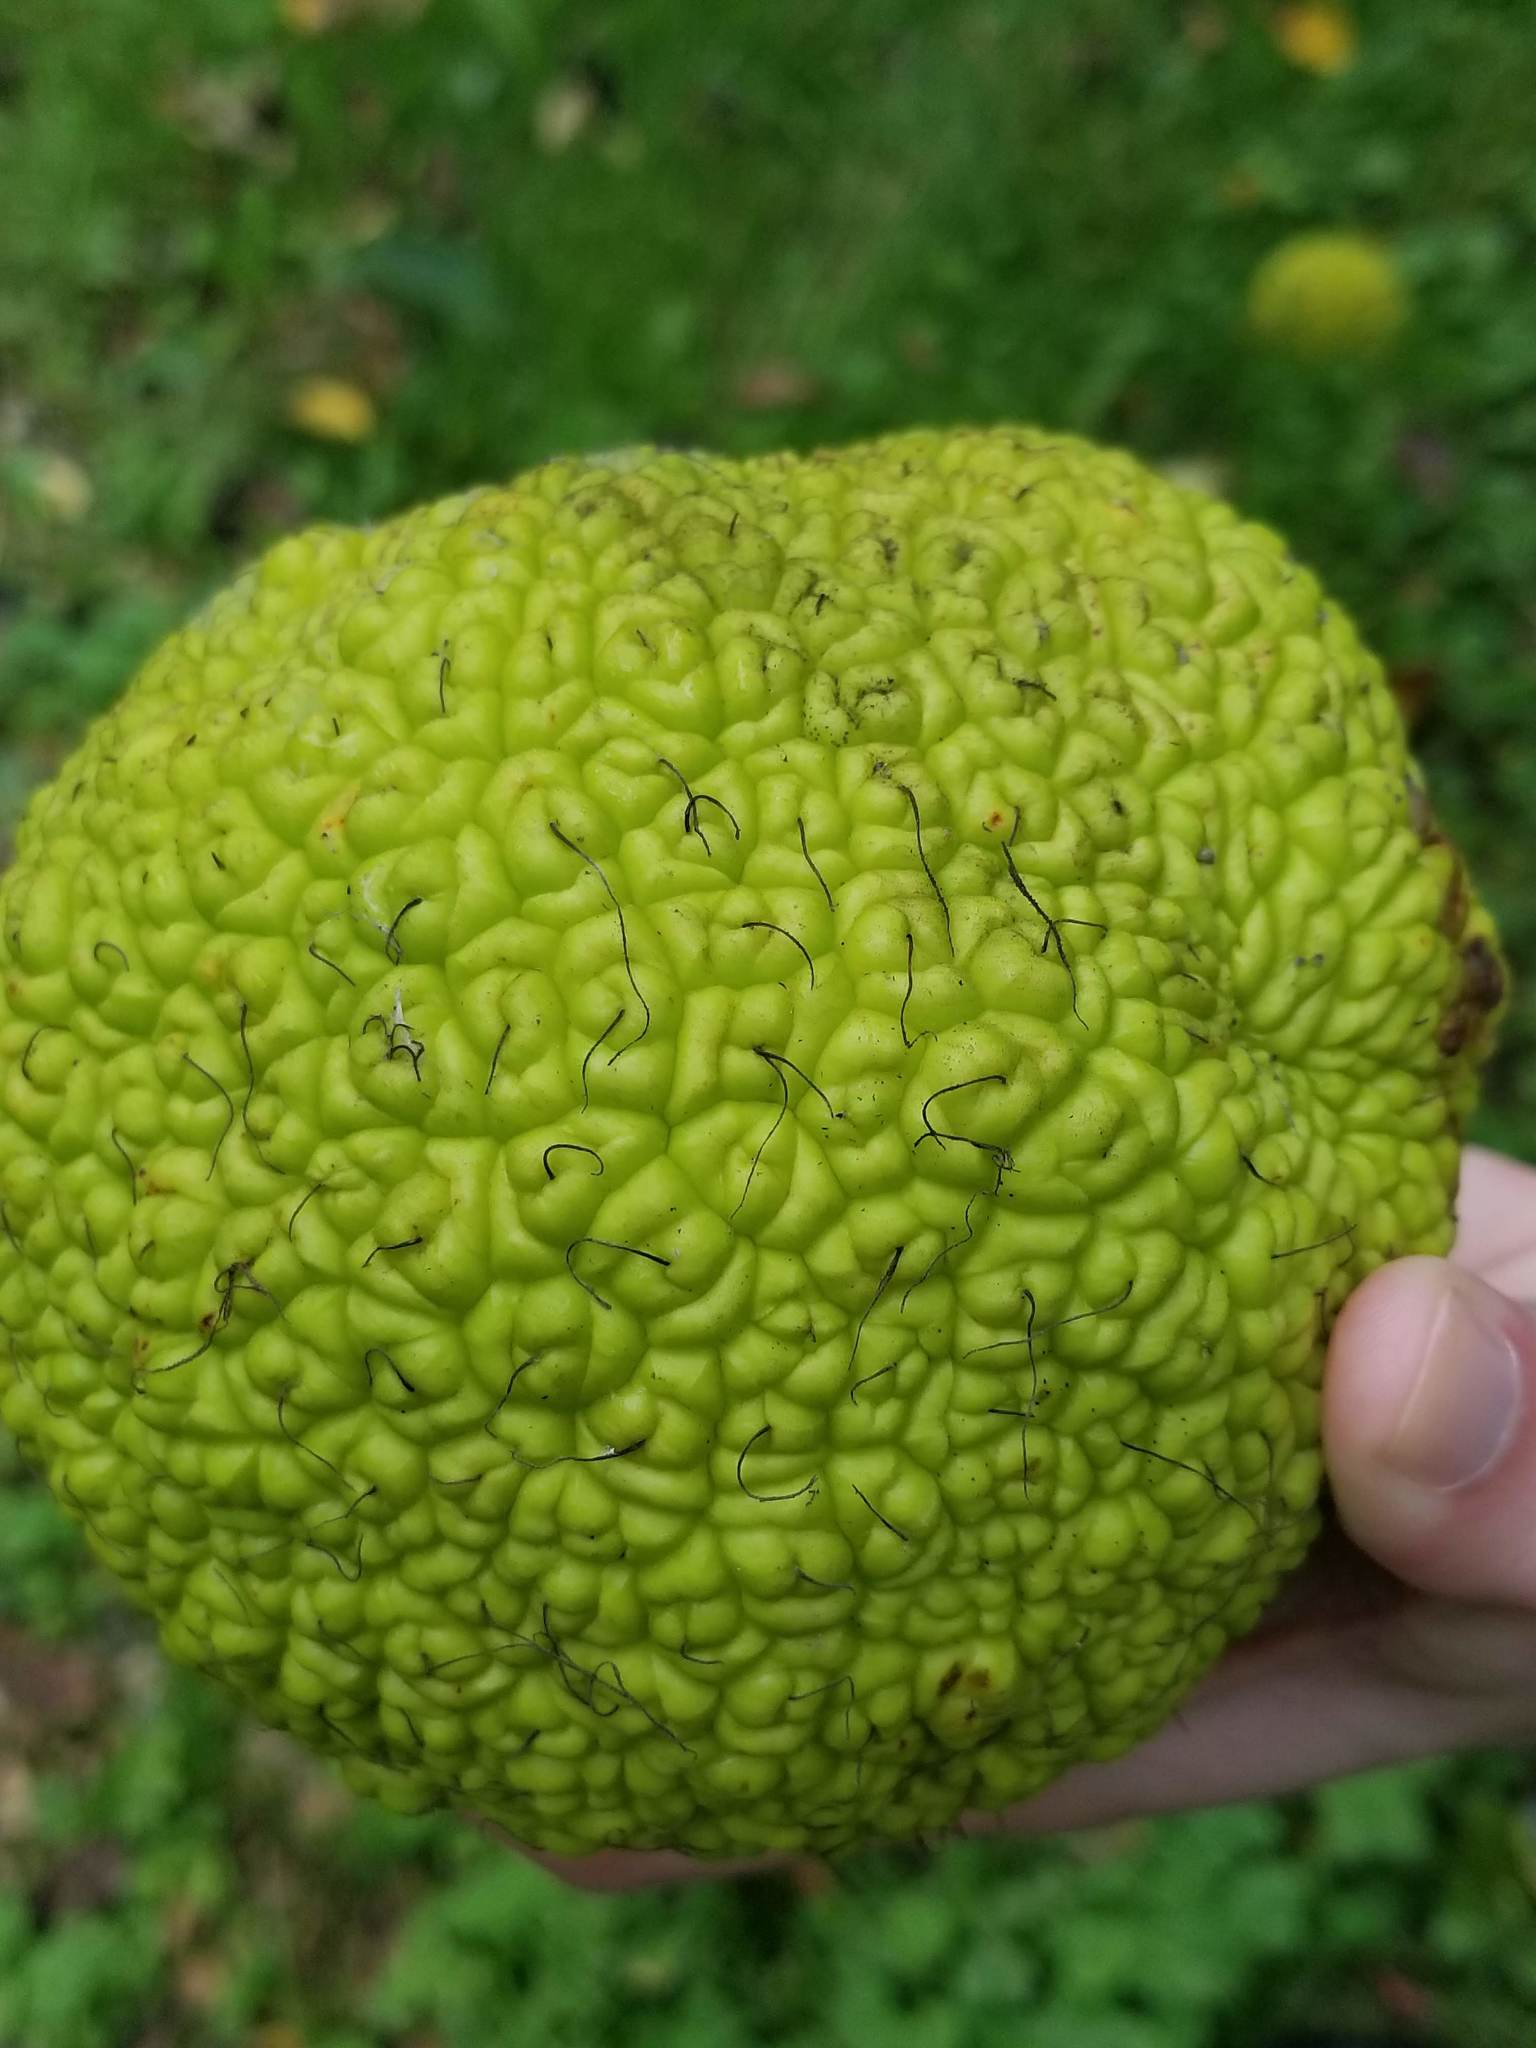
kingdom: Plantae
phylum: Tracheophyta
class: Magnoliopsida
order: Rosales
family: Moraceae
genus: Maclura
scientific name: Maclura pomifera
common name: Osage-orange
